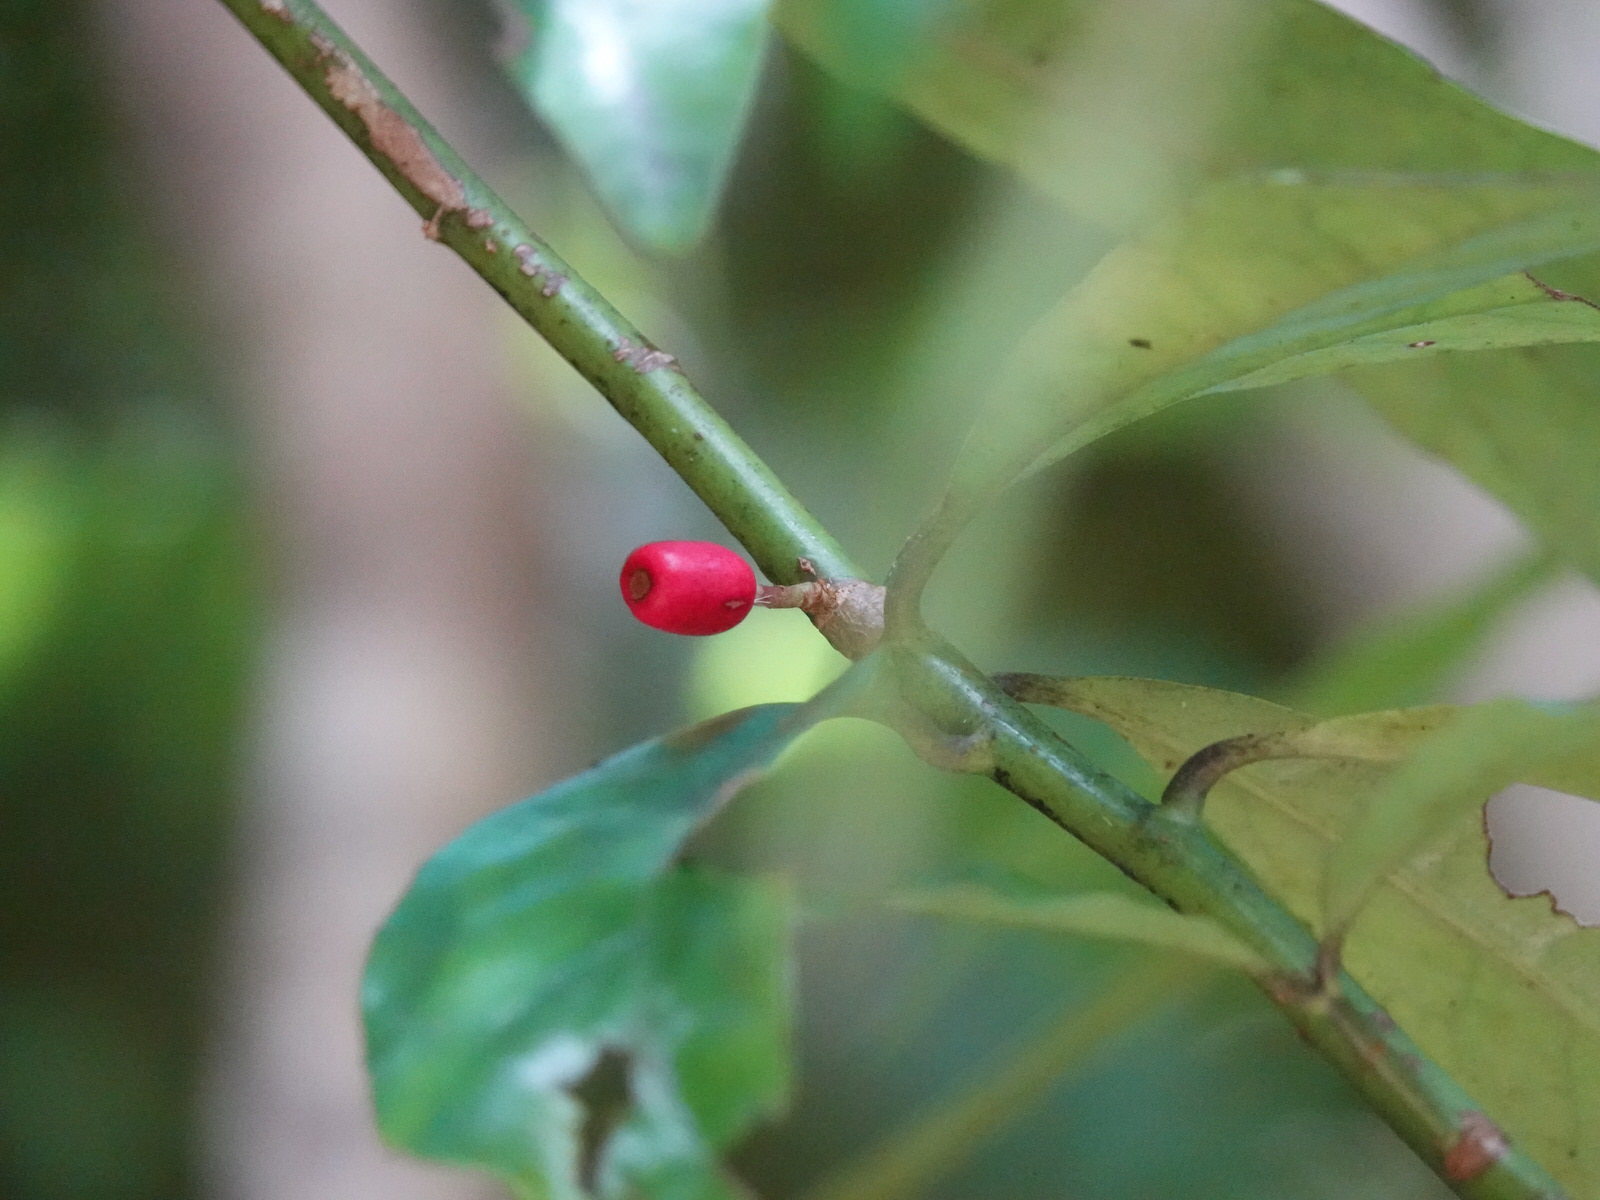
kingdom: Plantae
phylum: Tracheophyta
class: Magnoliopsida
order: Asterales
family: Alseuosmiaceae
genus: Alseuosmia
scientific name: Alseuosmia macrophylla
